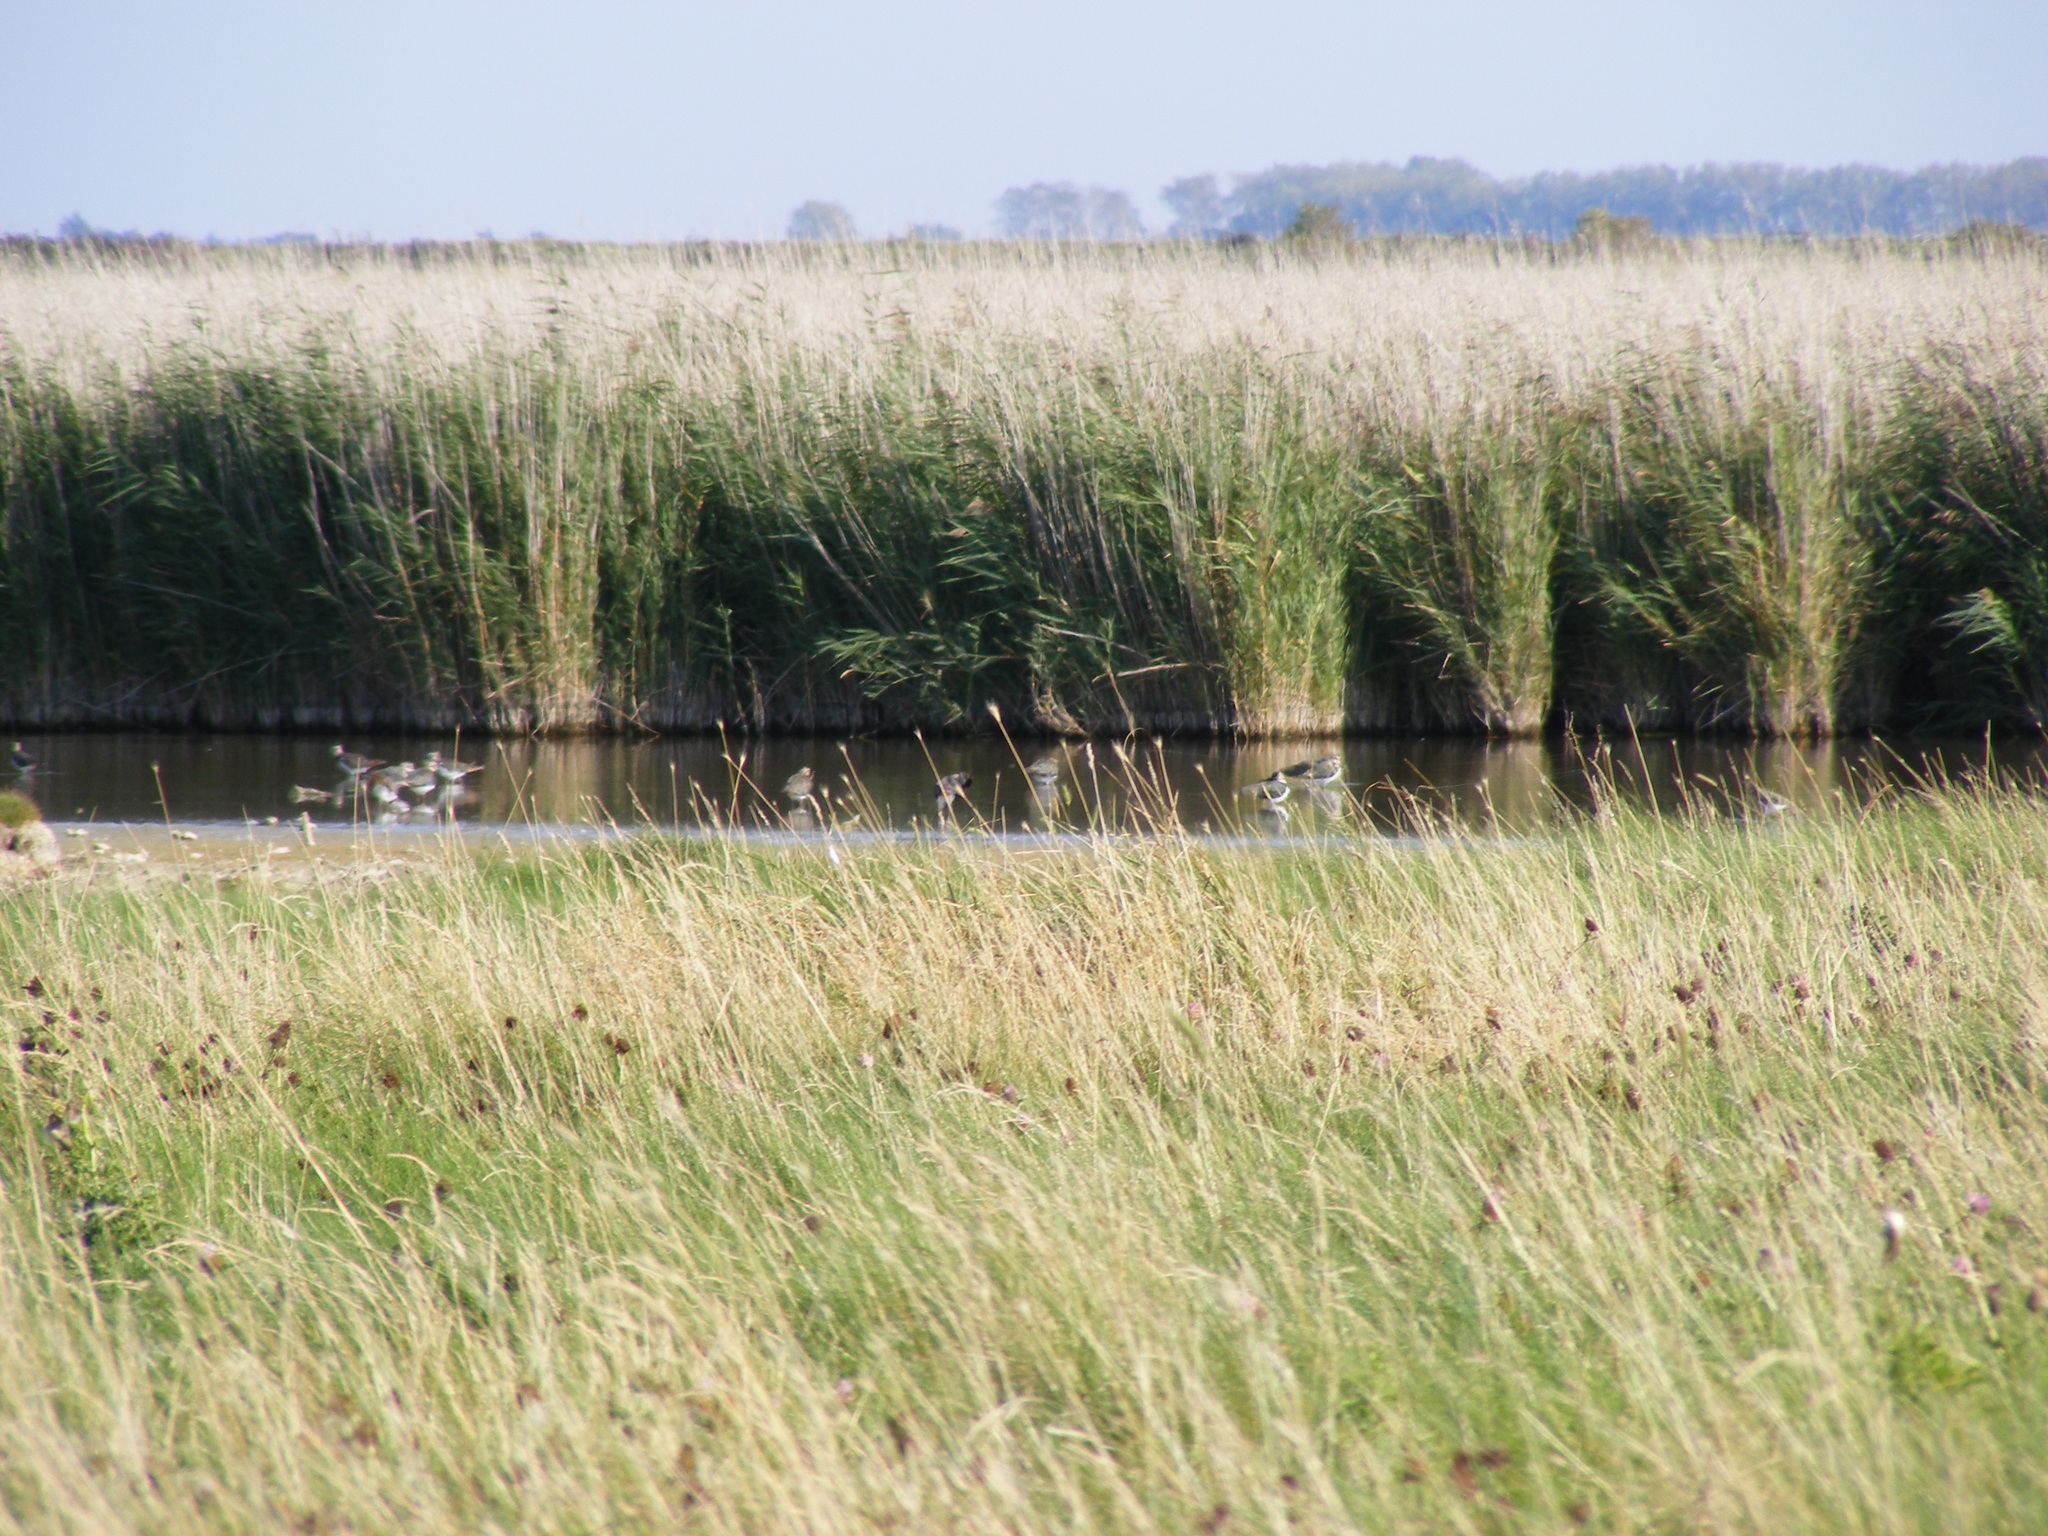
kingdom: Animalia
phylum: Chordata
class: Aves
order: Charadriiformes
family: Charadriidae
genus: Vanellus
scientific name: Vanellus vanellus
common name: Northern lapwing
